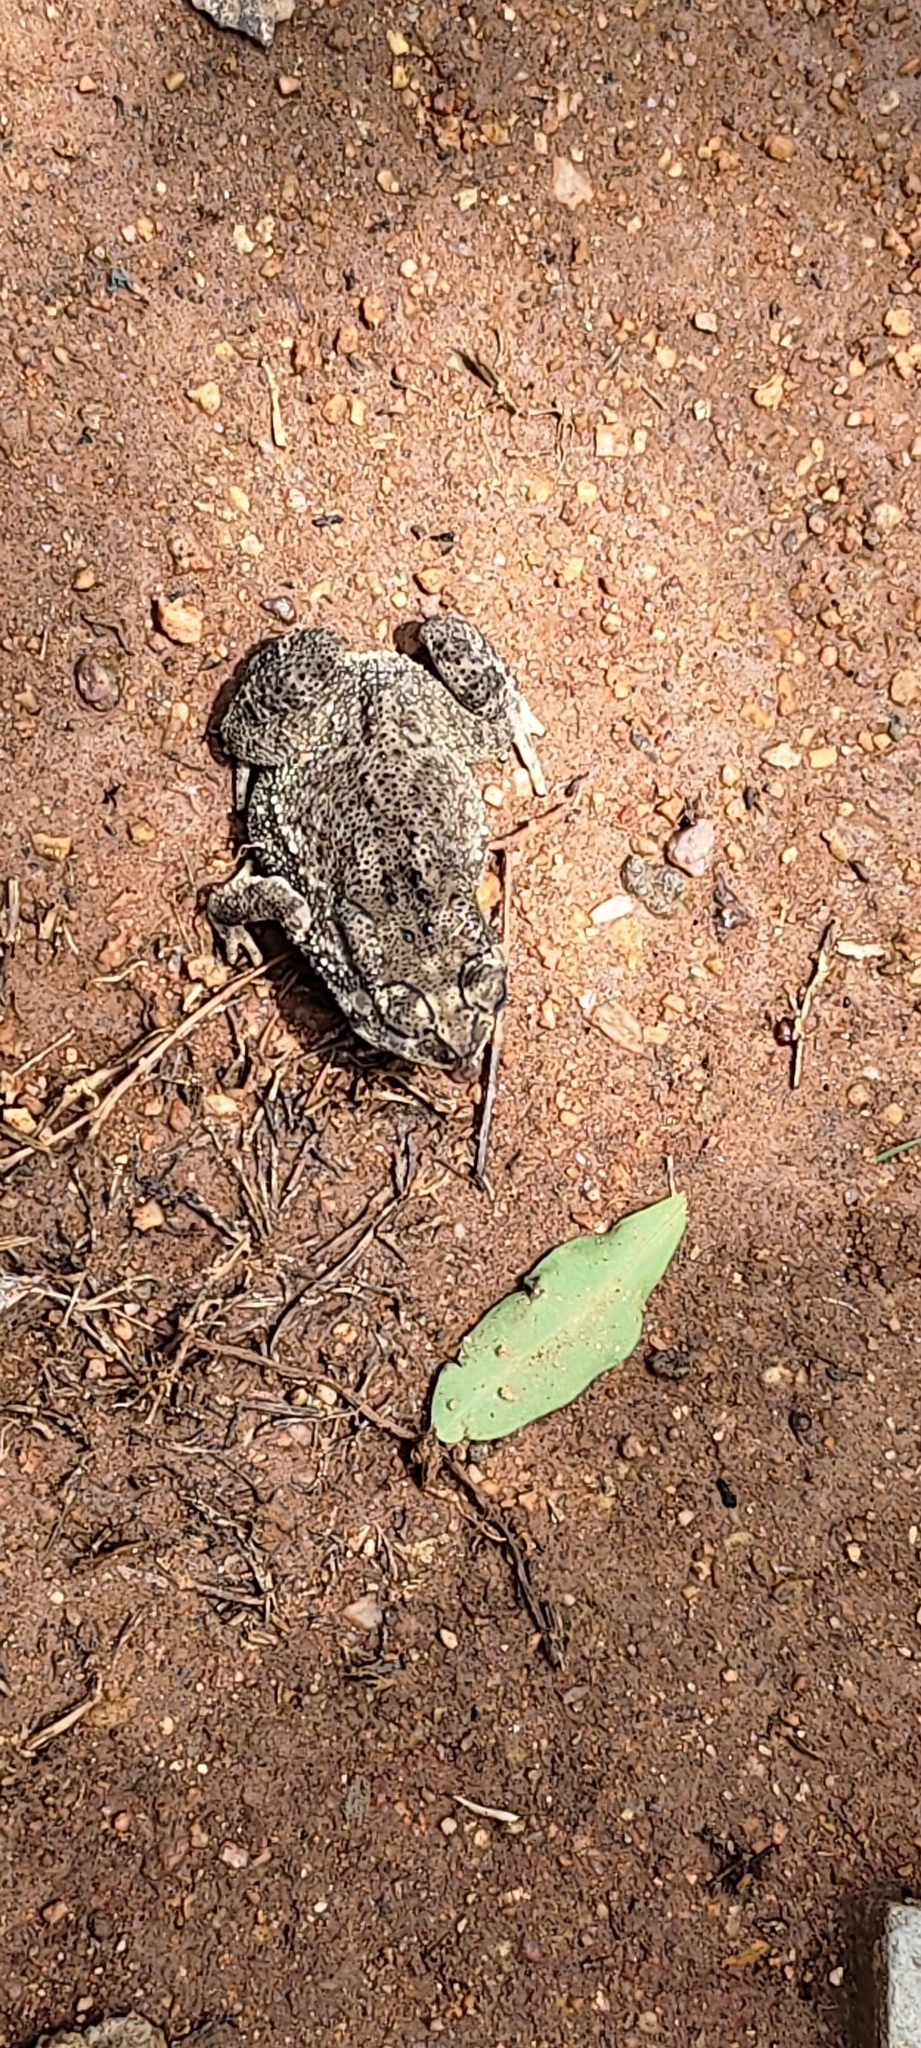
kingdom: Animalia
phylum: Chordata
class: Amphibia
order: Anura
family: Bufonidae
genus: Duttaphrynus
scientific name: Duttaphrynus melanostictus
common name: Common sunda toad
